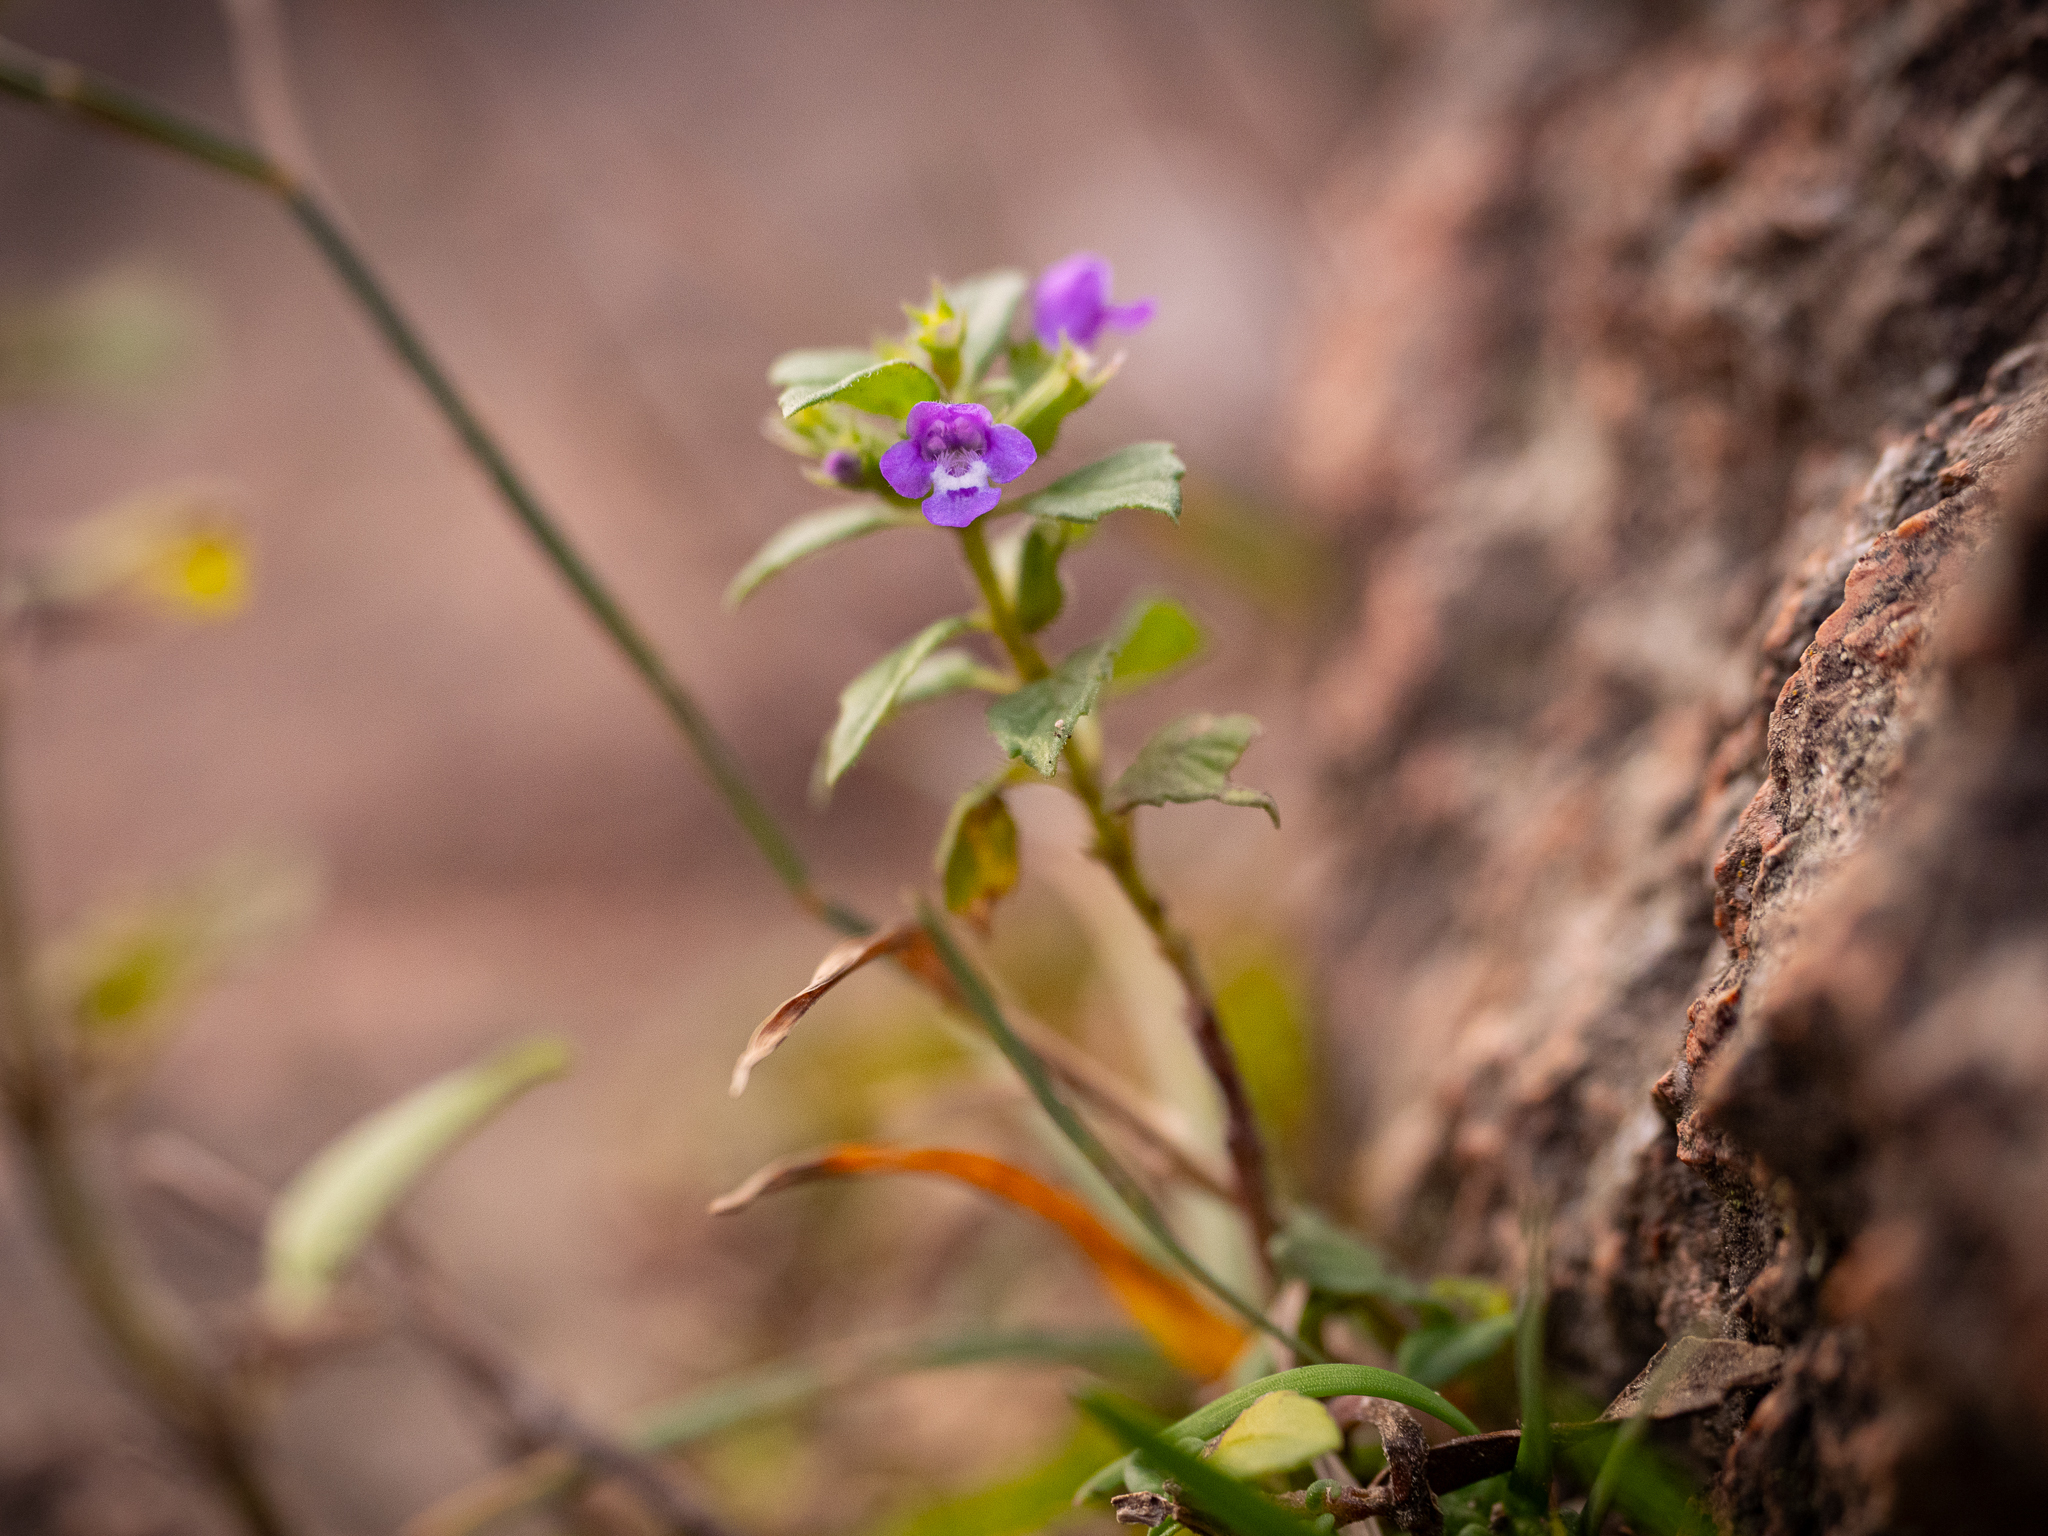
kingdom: Plantae
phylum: Tracheophyta
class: Magnoliopsida
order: Lamiales
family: Lamiaceae
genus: Clinopodium
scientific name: Clinopodium acinos
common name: Basil thyme
